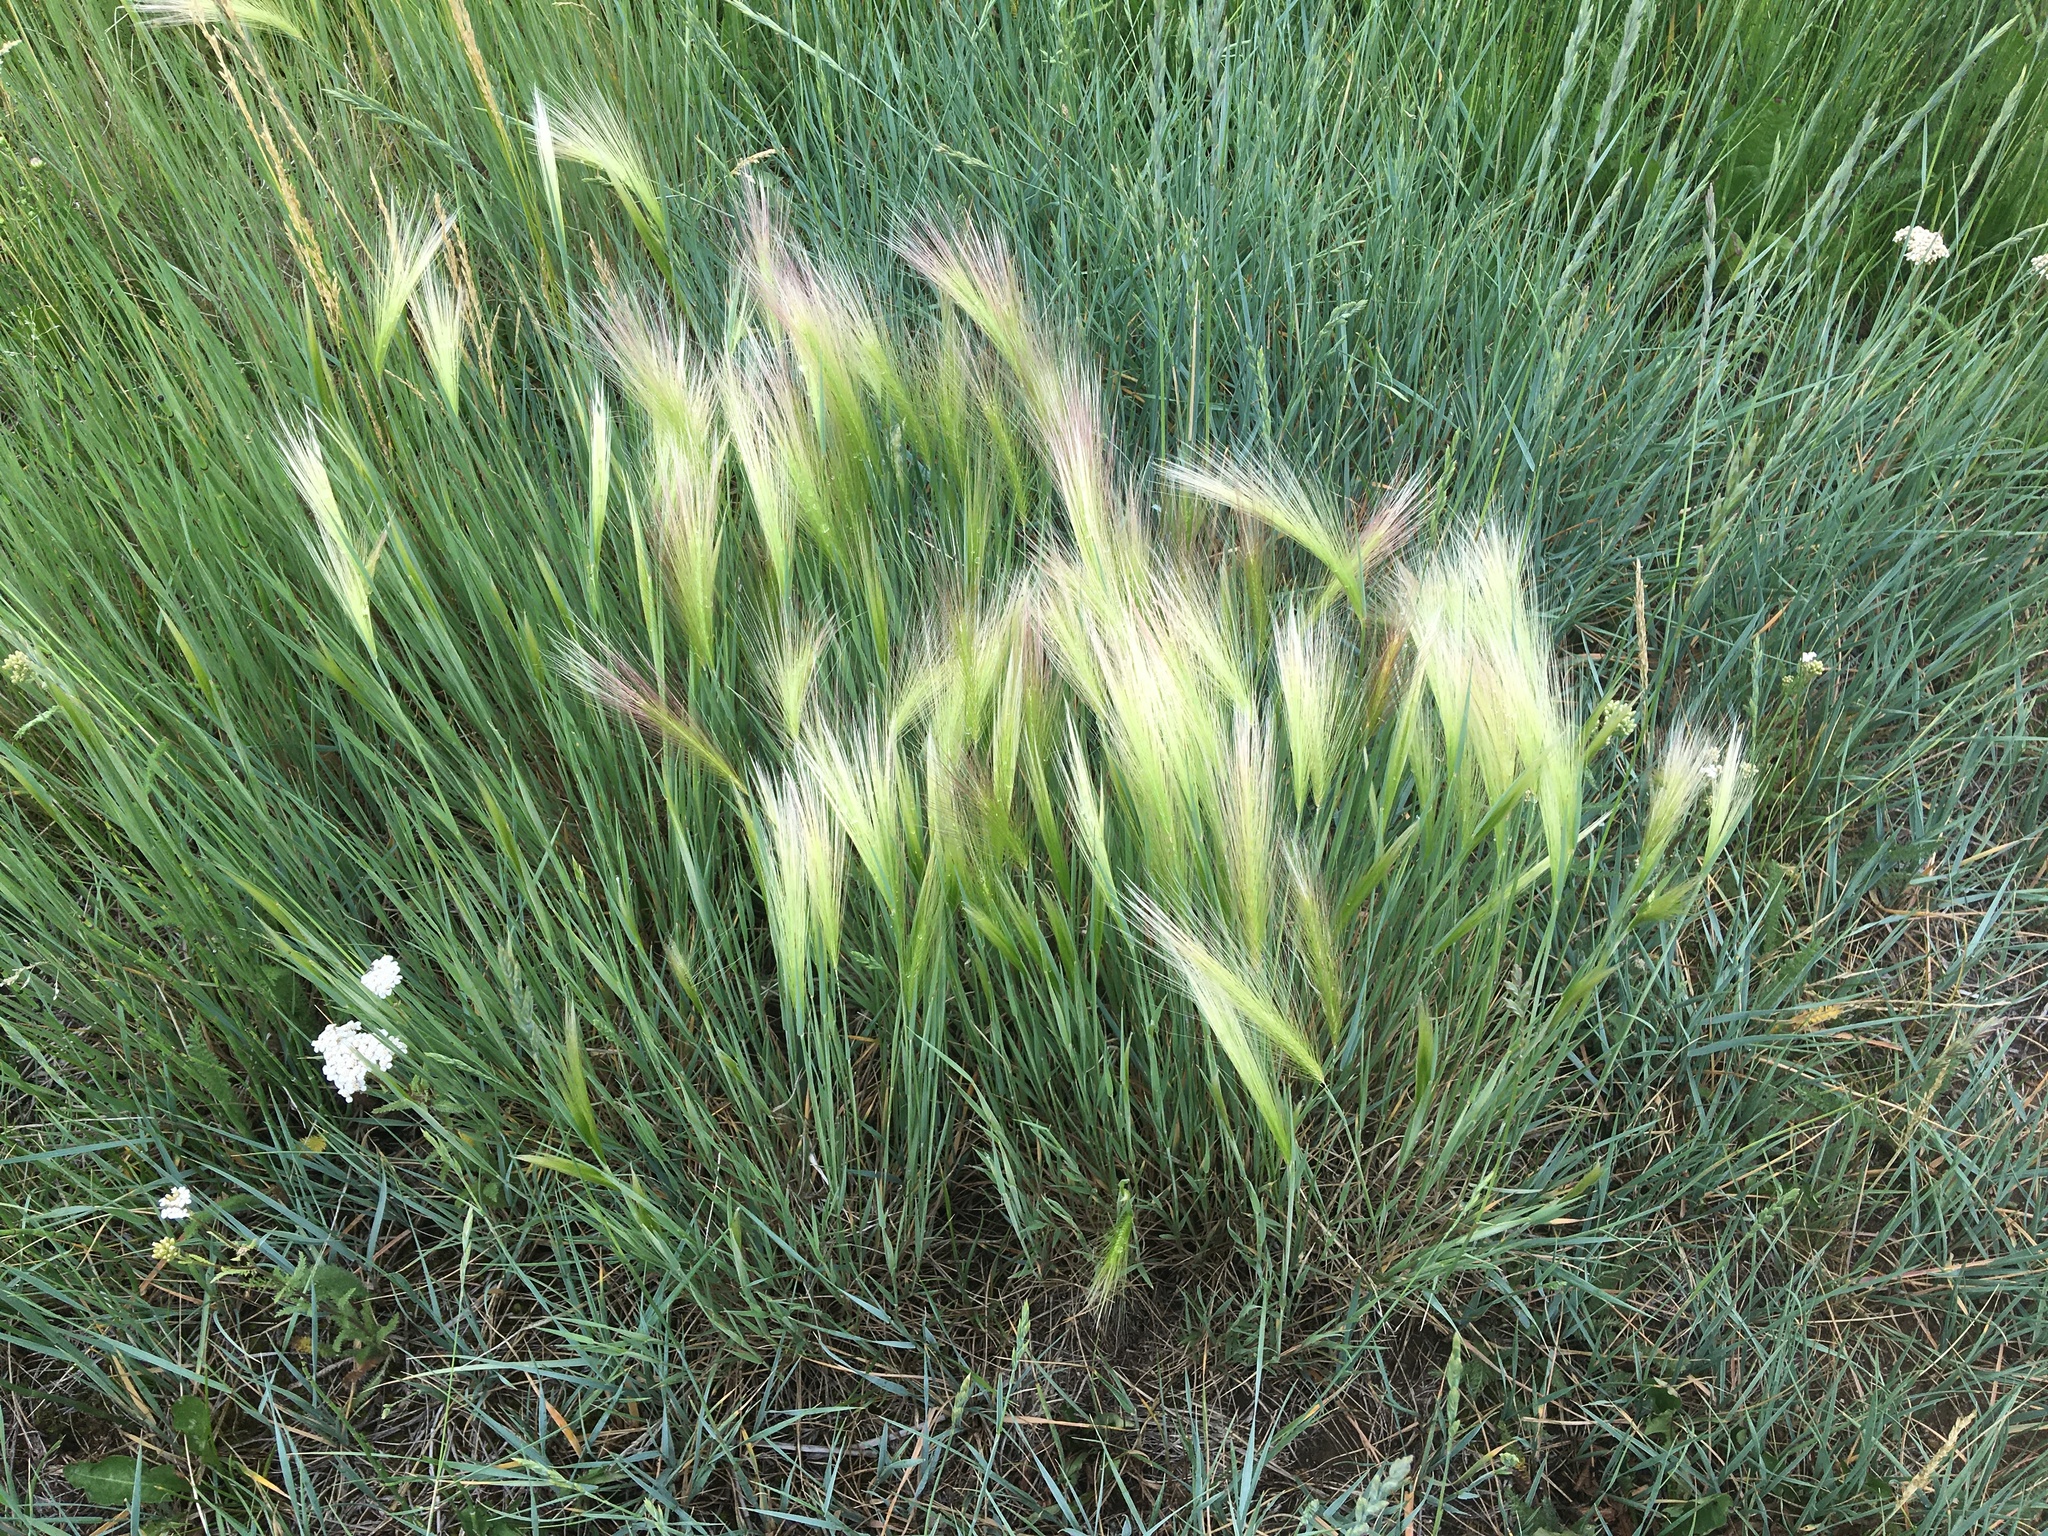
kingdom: Plantae
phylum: Tracheophyta
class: Liliopsida
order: Poales
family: Poaceae
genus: Hordeum
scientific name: Hordeum jubatum
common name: Foxtail barley
